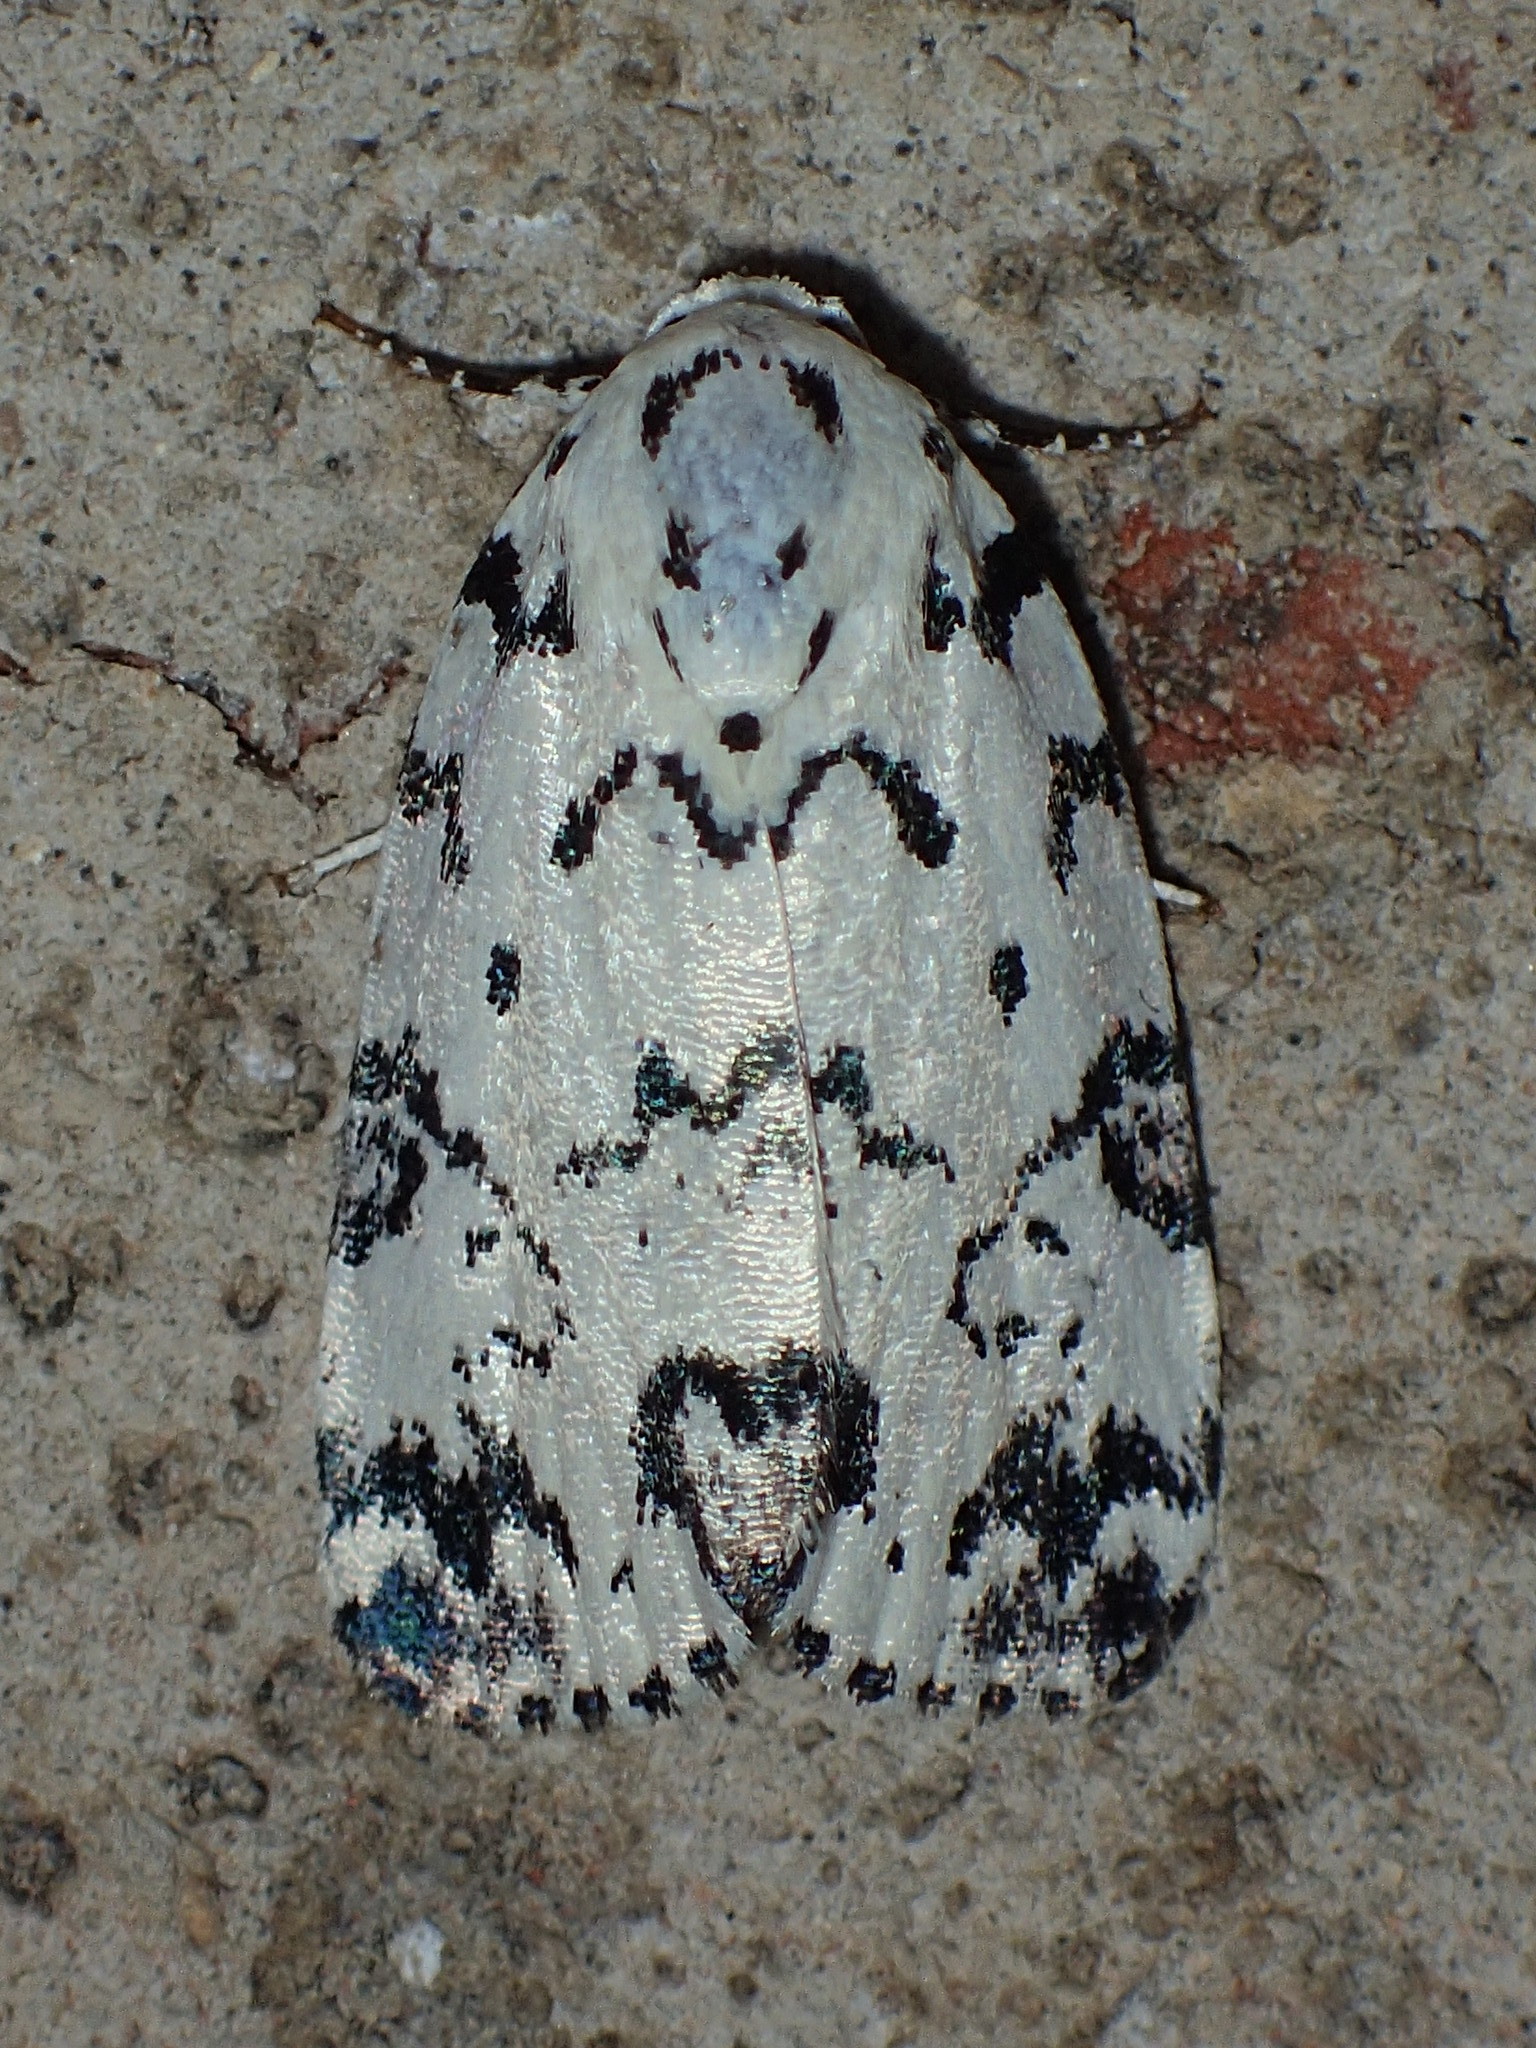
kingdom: Animalia
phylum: Arthropoda
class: Insecta
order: Lepidoptera
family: Noctuidae
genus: Polygrammate
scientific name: Polygrammate hebraeicum
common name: Hebrew moth
